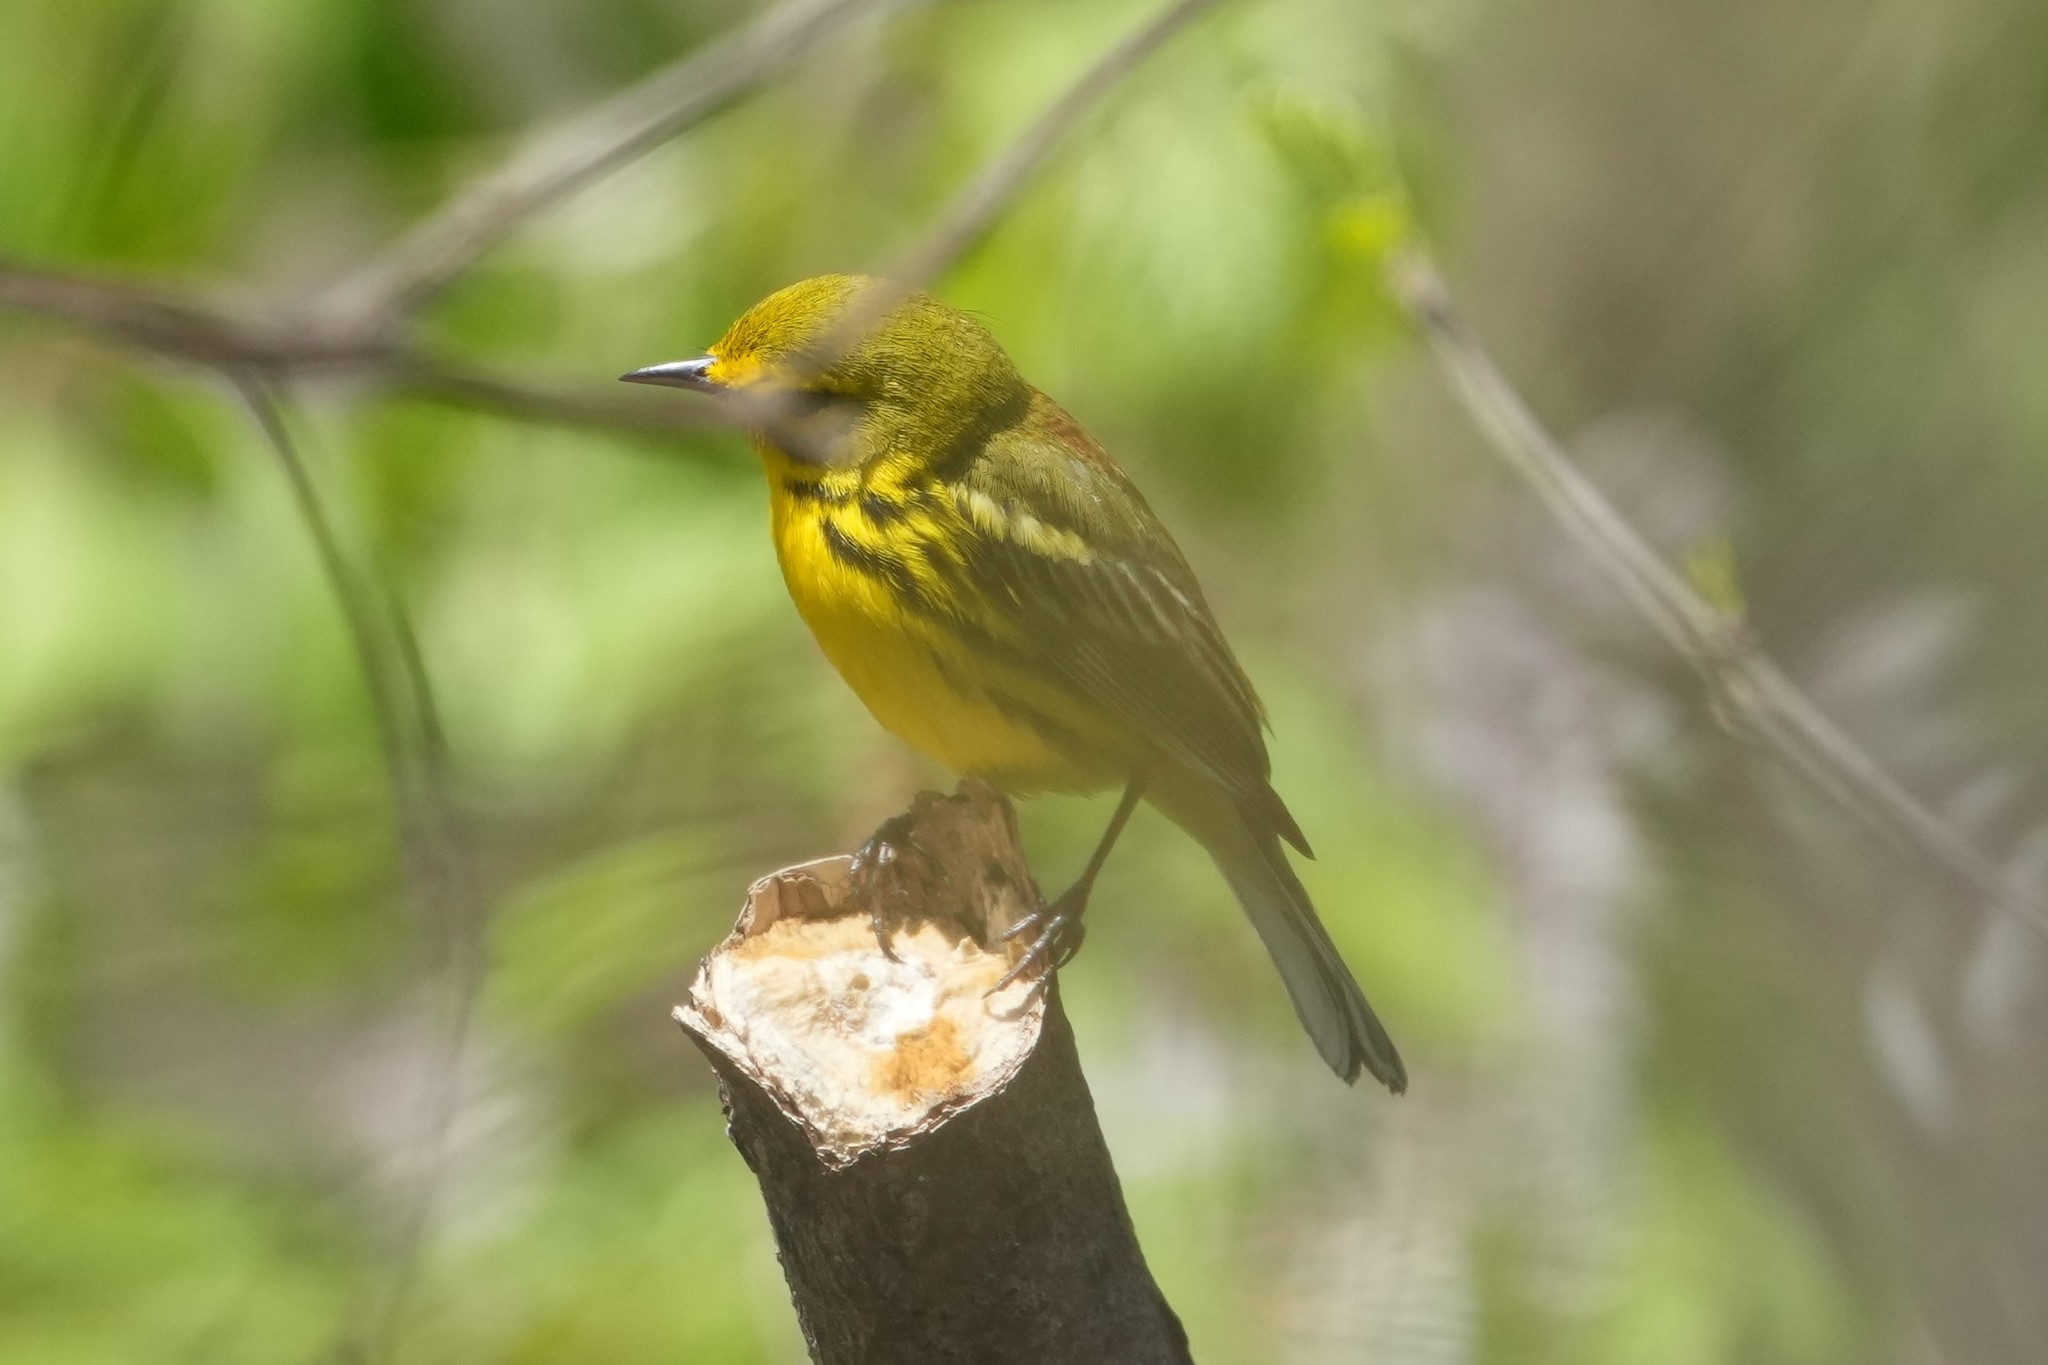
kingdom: Animalia
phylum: Chordata
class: Aves
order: Passeriformes
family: Parulidae
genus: Setophaga
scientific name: Setophaga discolor
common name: Prairie warbler
